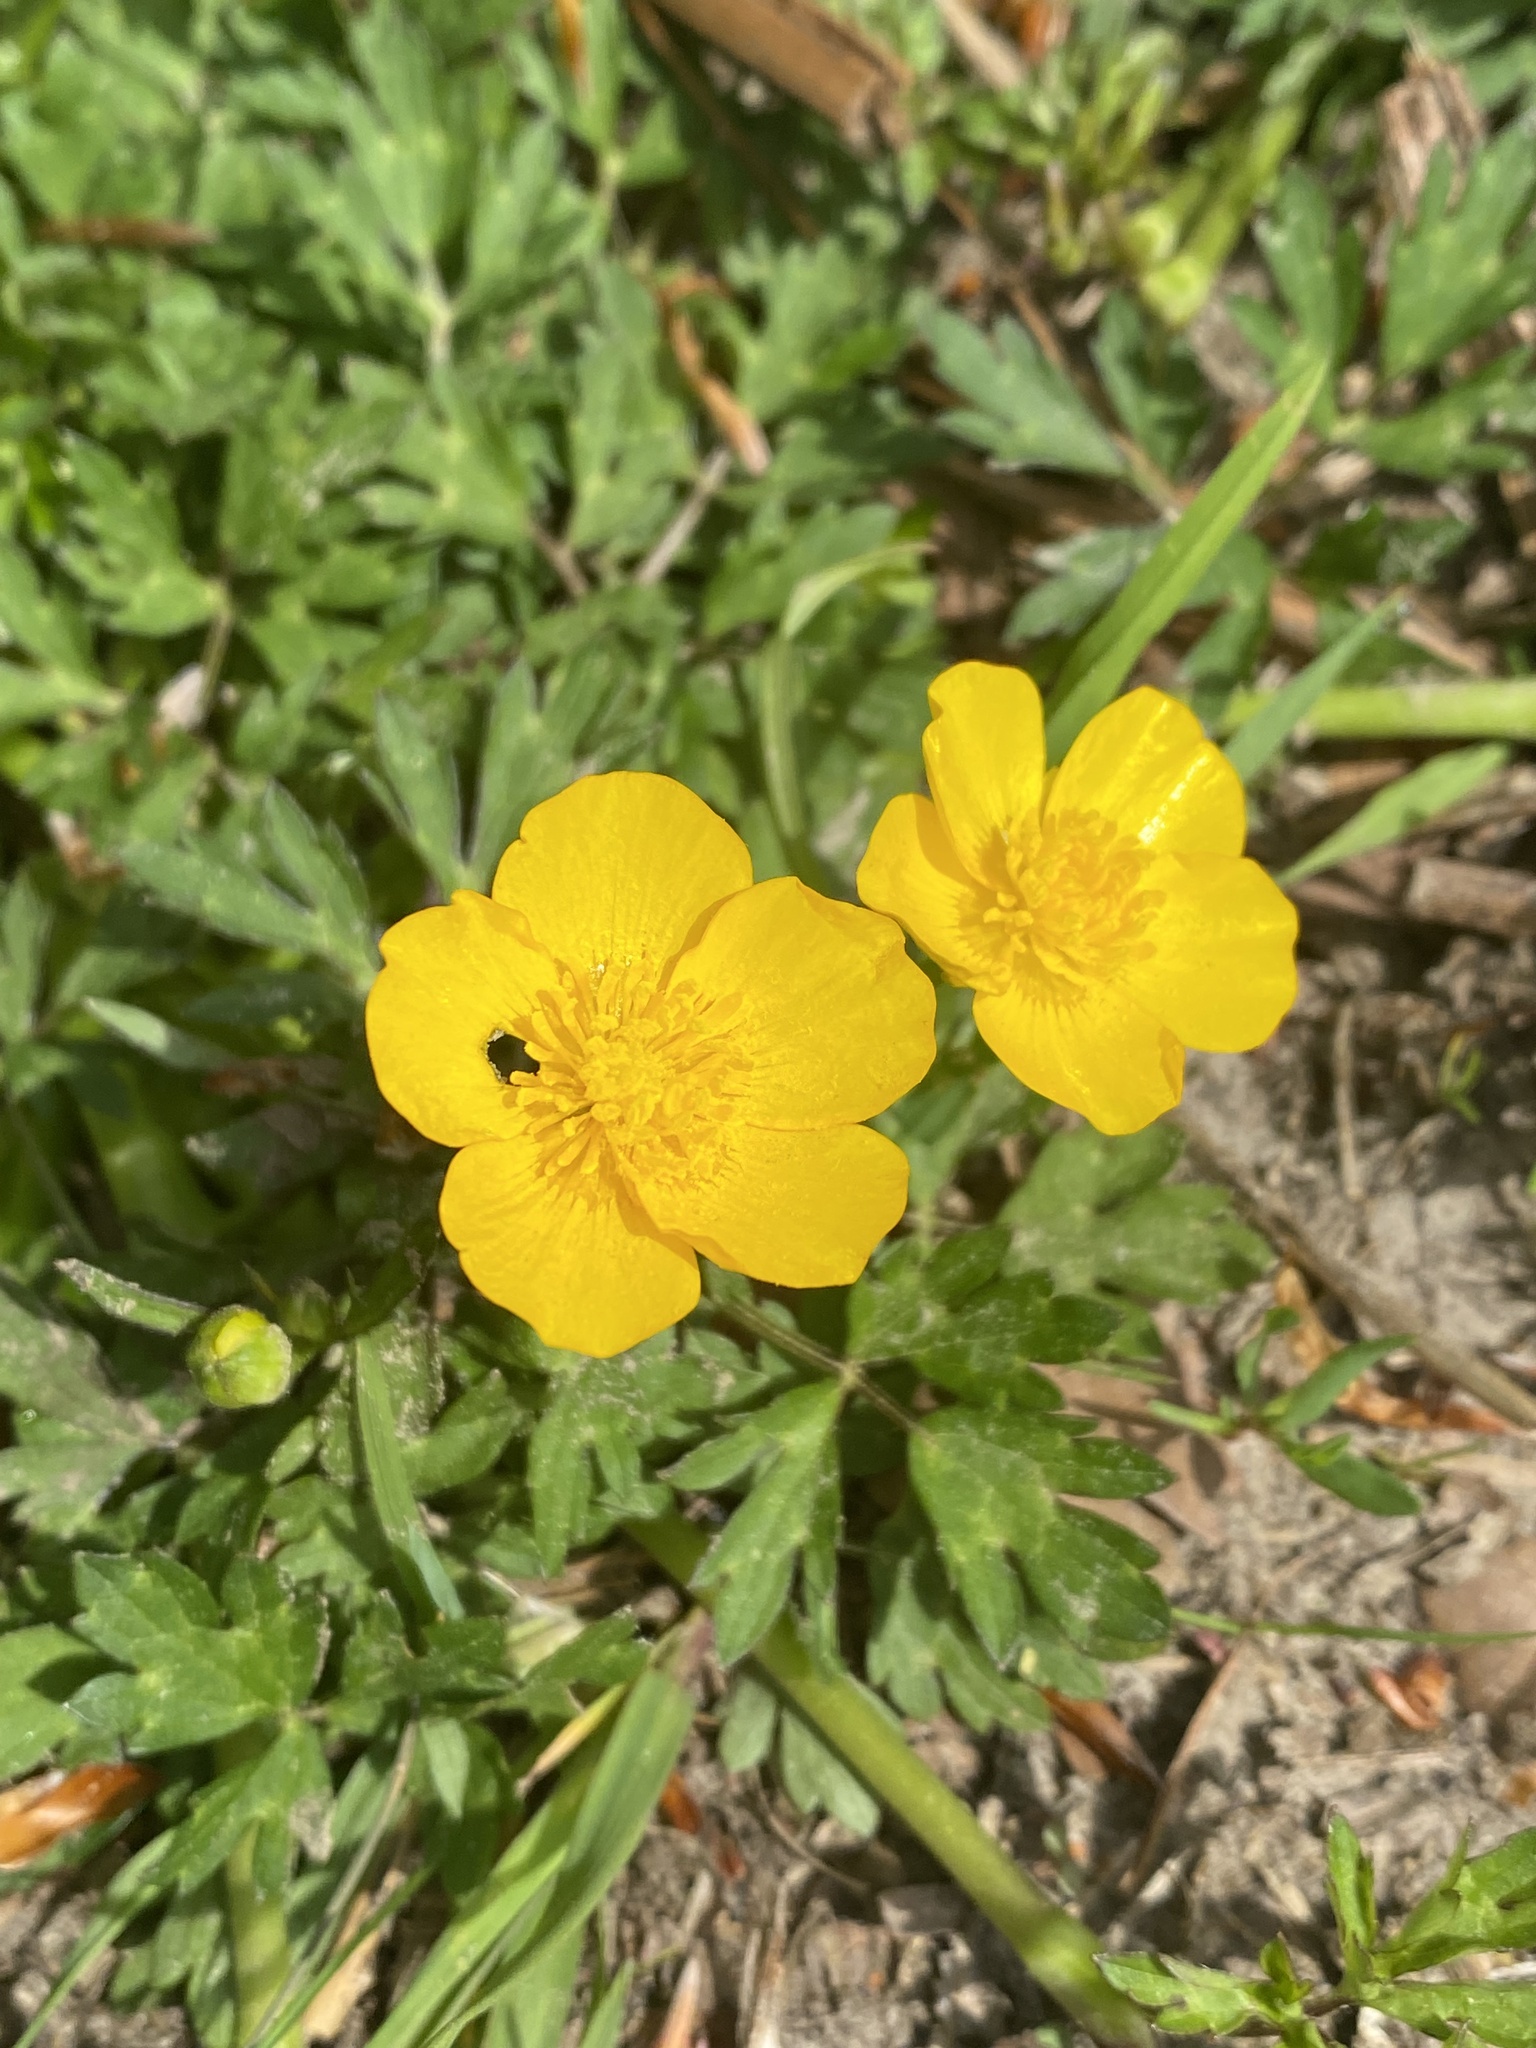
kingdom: Plantae
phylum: Tracheophyta
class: Magnoliopsida
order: Ranunculales
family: Ranunculaceae
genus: Ranunculus
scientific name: Ranunculus repens
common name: Creeping buttercup
